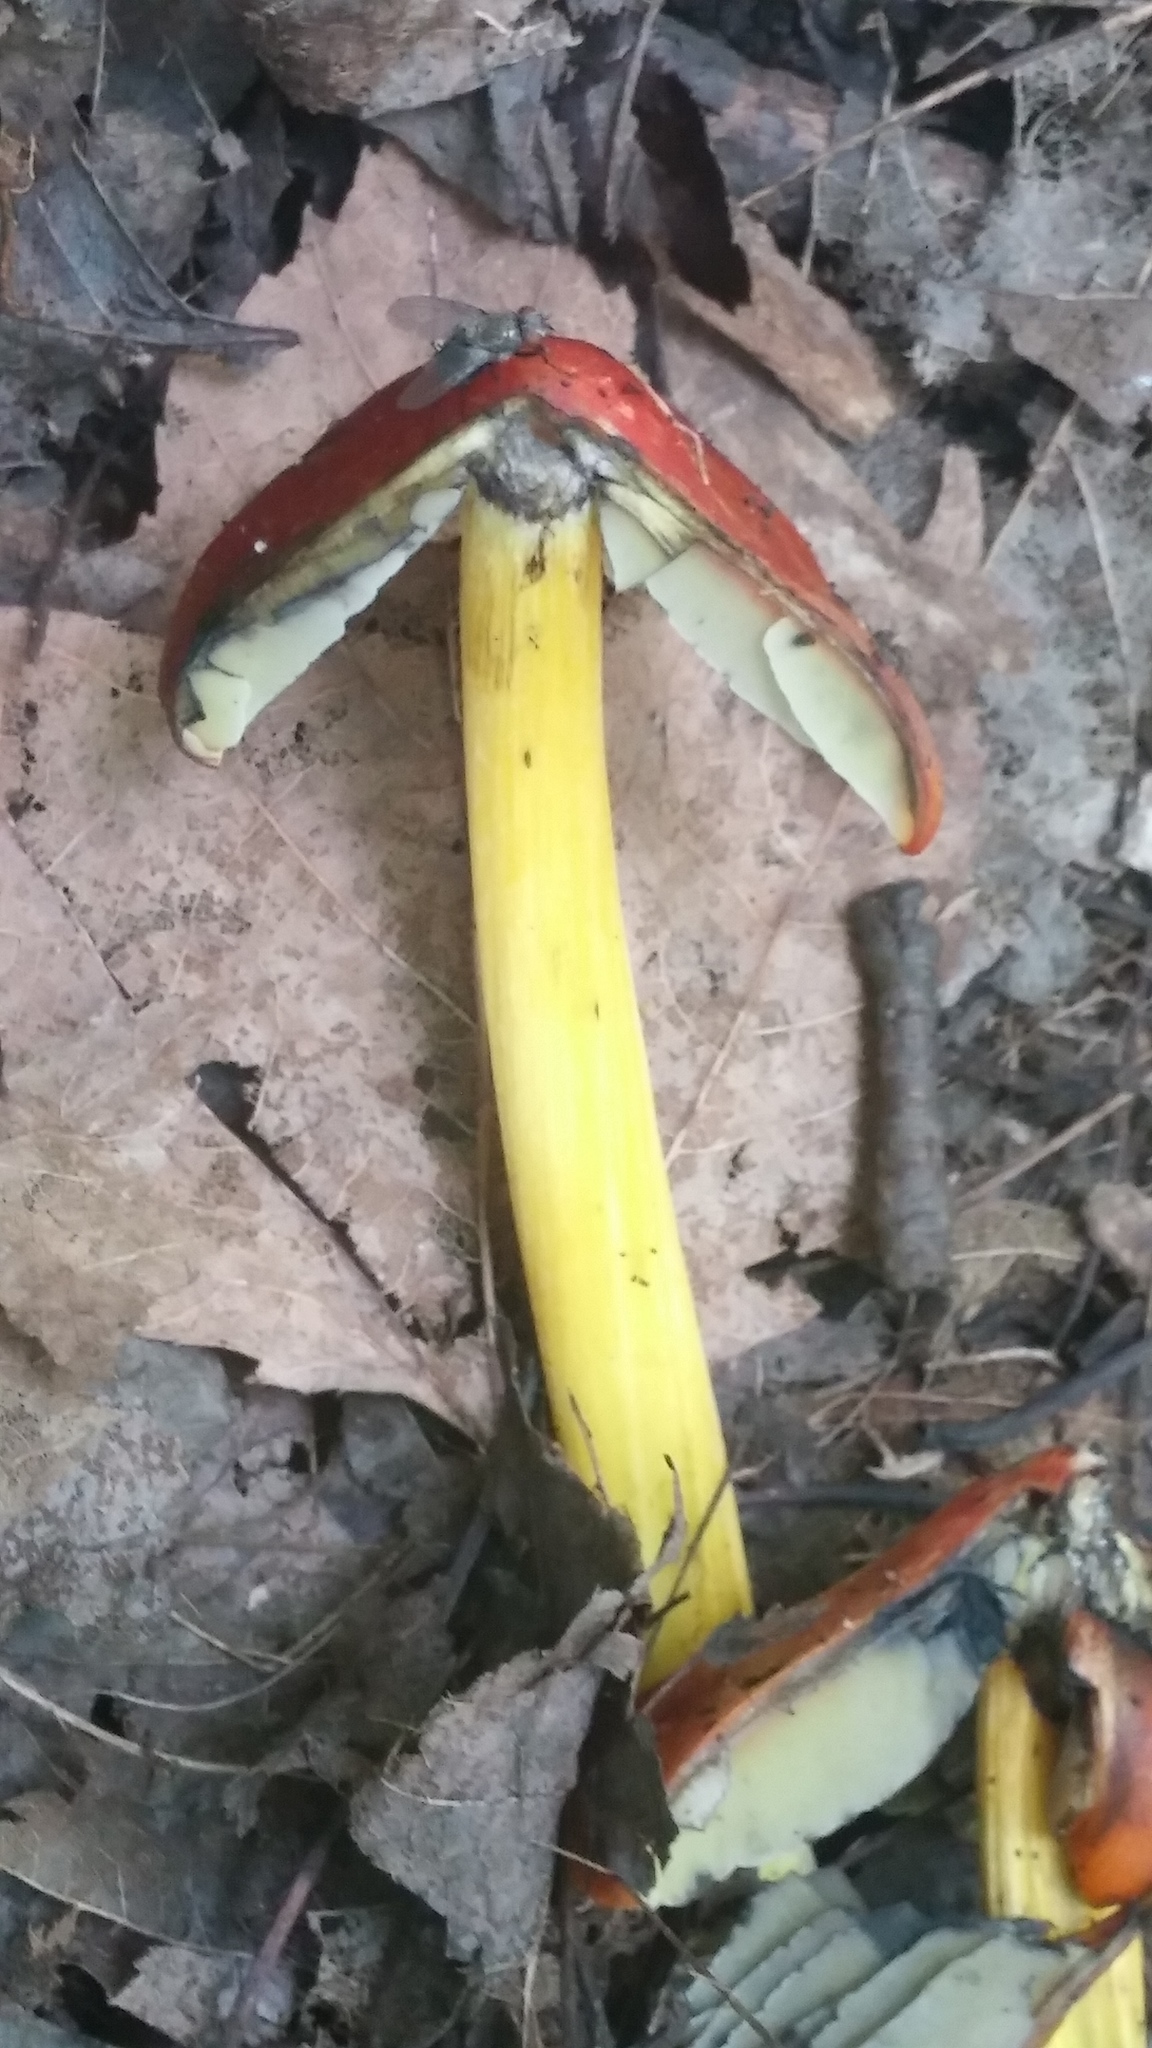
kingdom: Fungi
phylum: Basidiomycota
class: Agaricomycetes
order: Agaricales
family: Hygrophoraceae
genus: Hygrocybe
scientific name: Hygrocybe conica
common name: Blackening wax-cap
